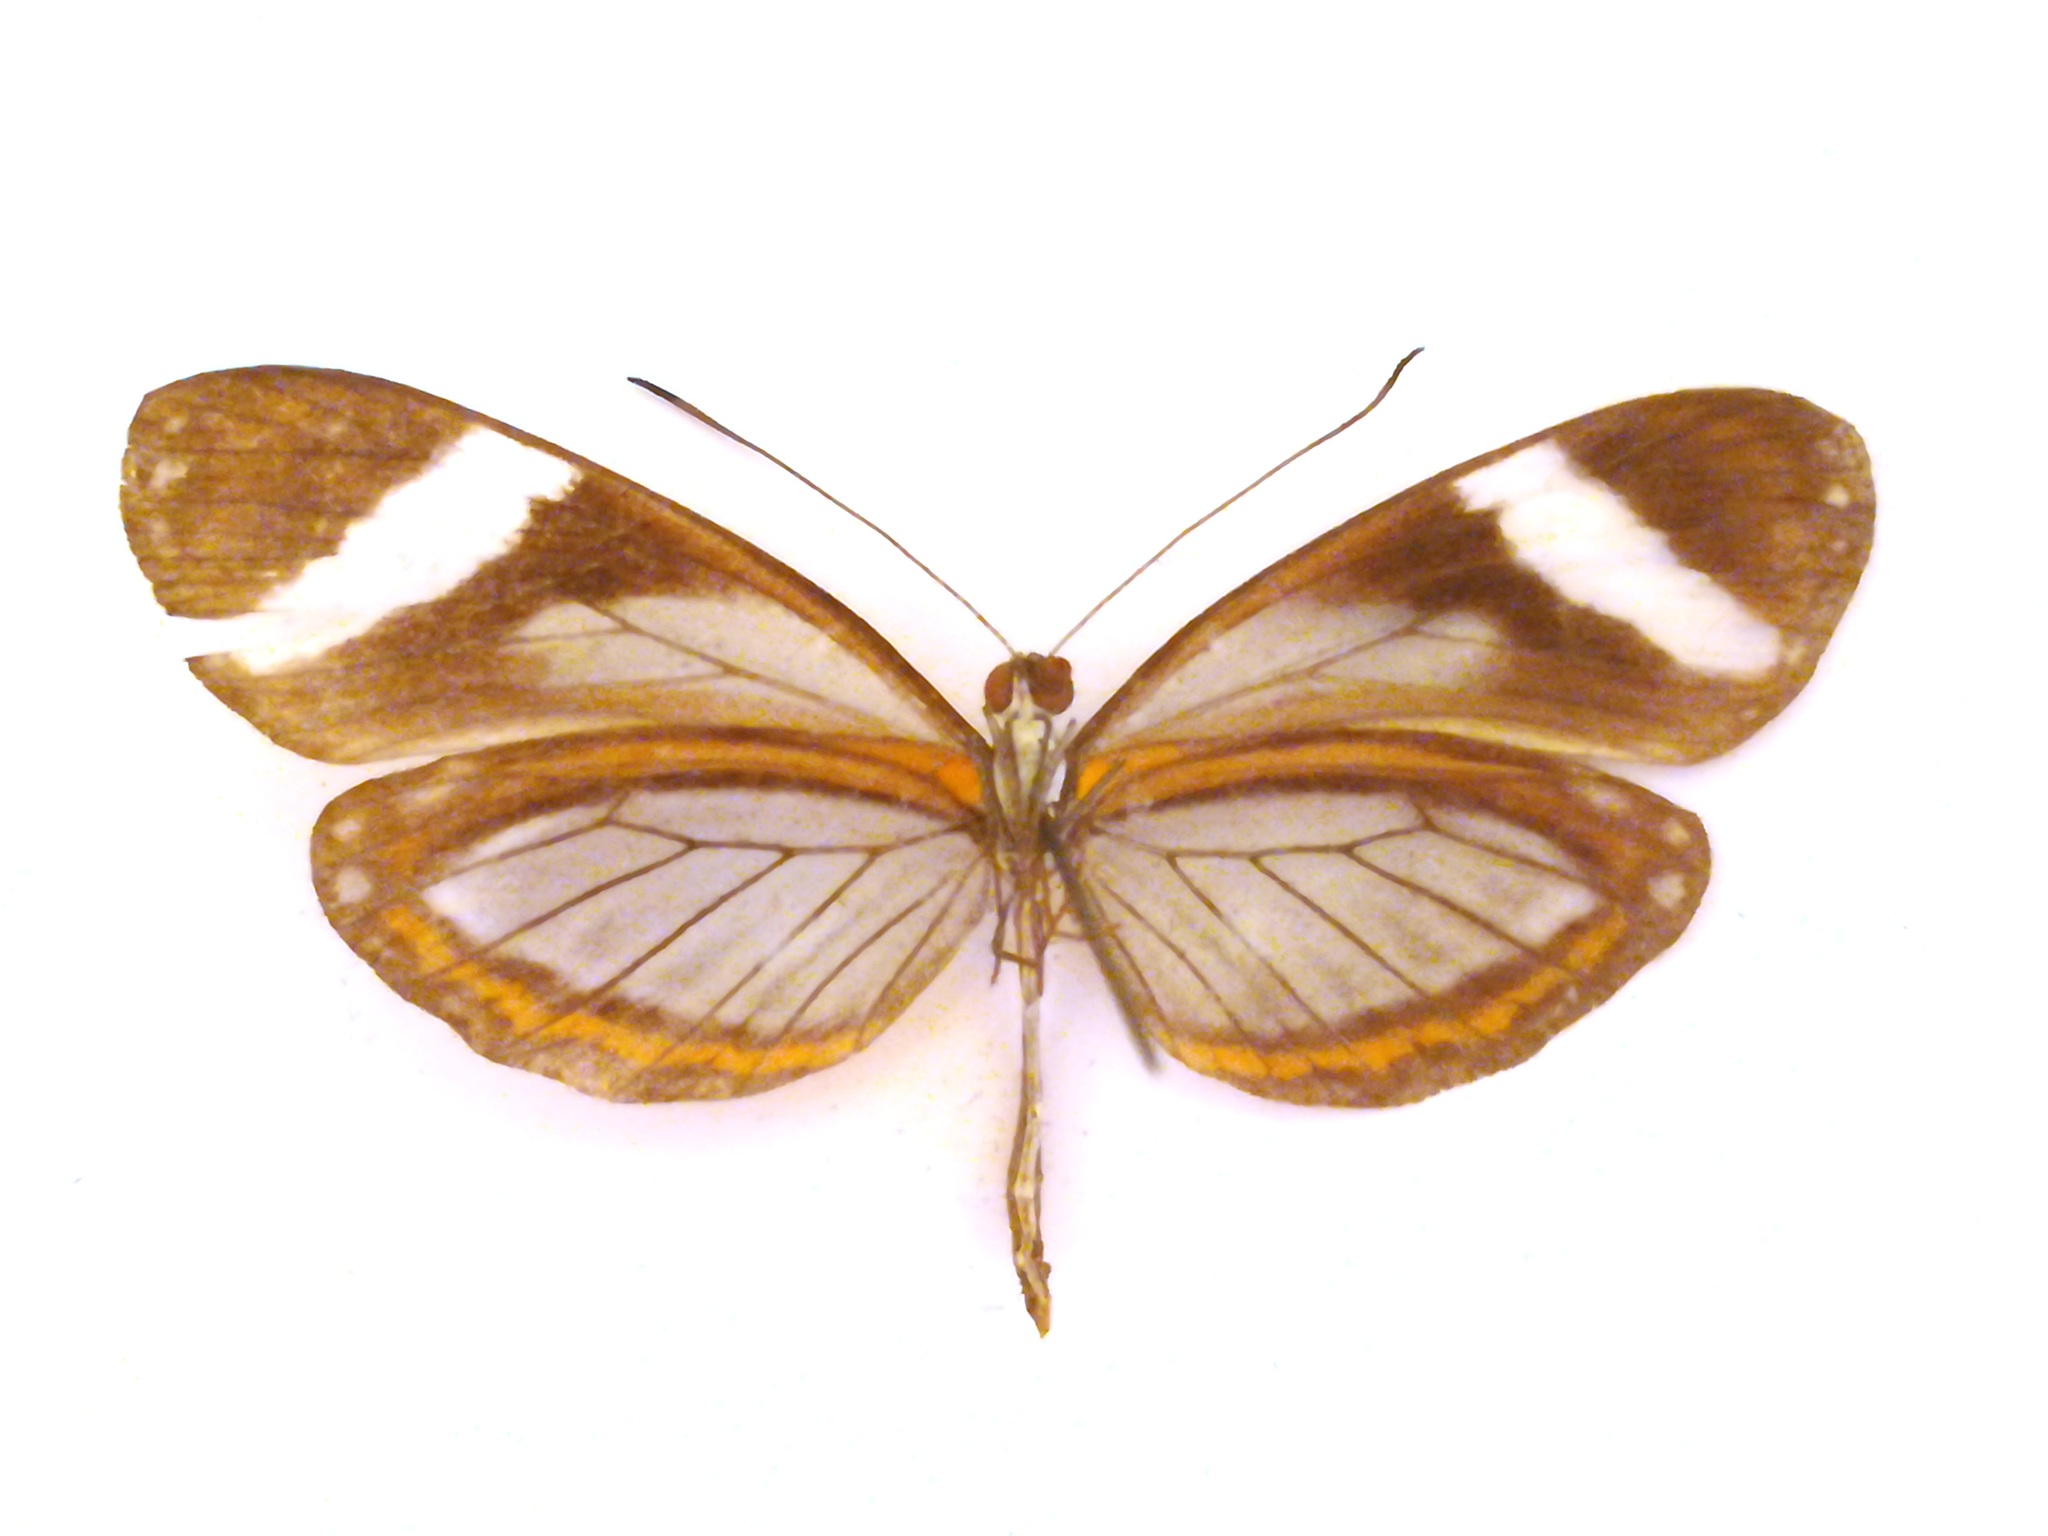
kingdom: Animalia
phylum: Arthropoda
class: Insecta
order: Lepidoptera
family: Pieridae
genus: Dismorphia
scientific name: Dismorphia theucharila
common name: Clearwing mimic-white
